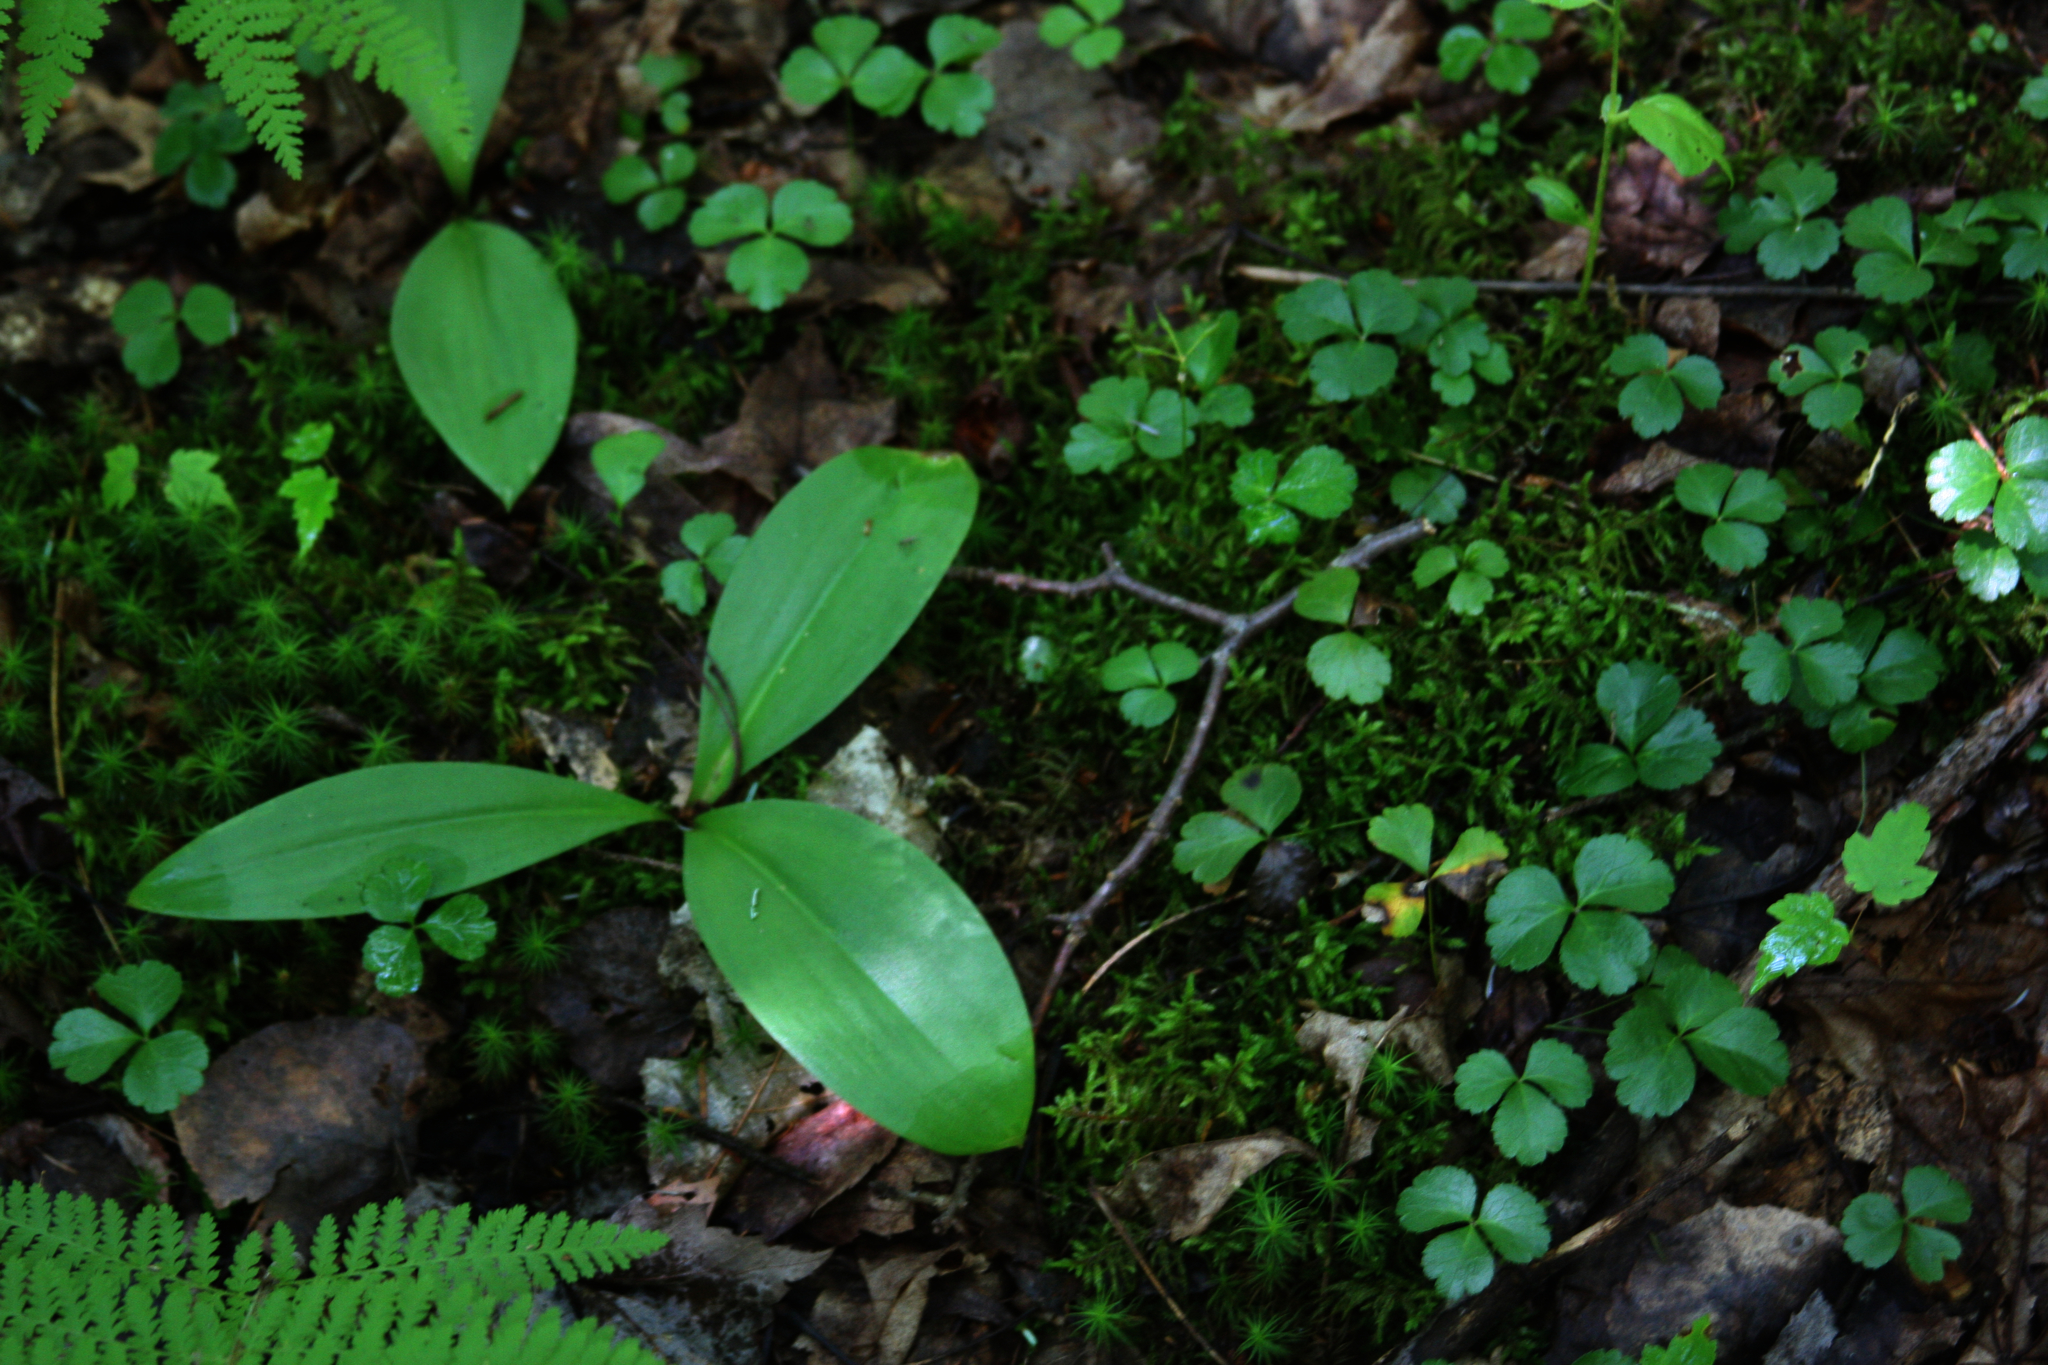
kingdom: Plantae
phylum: Tracheophyta
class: Magnoliopsida
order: Ranunculales
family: Ranunculaceae
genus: Coptis
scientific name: Coptis trifolia
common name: Canker-root
